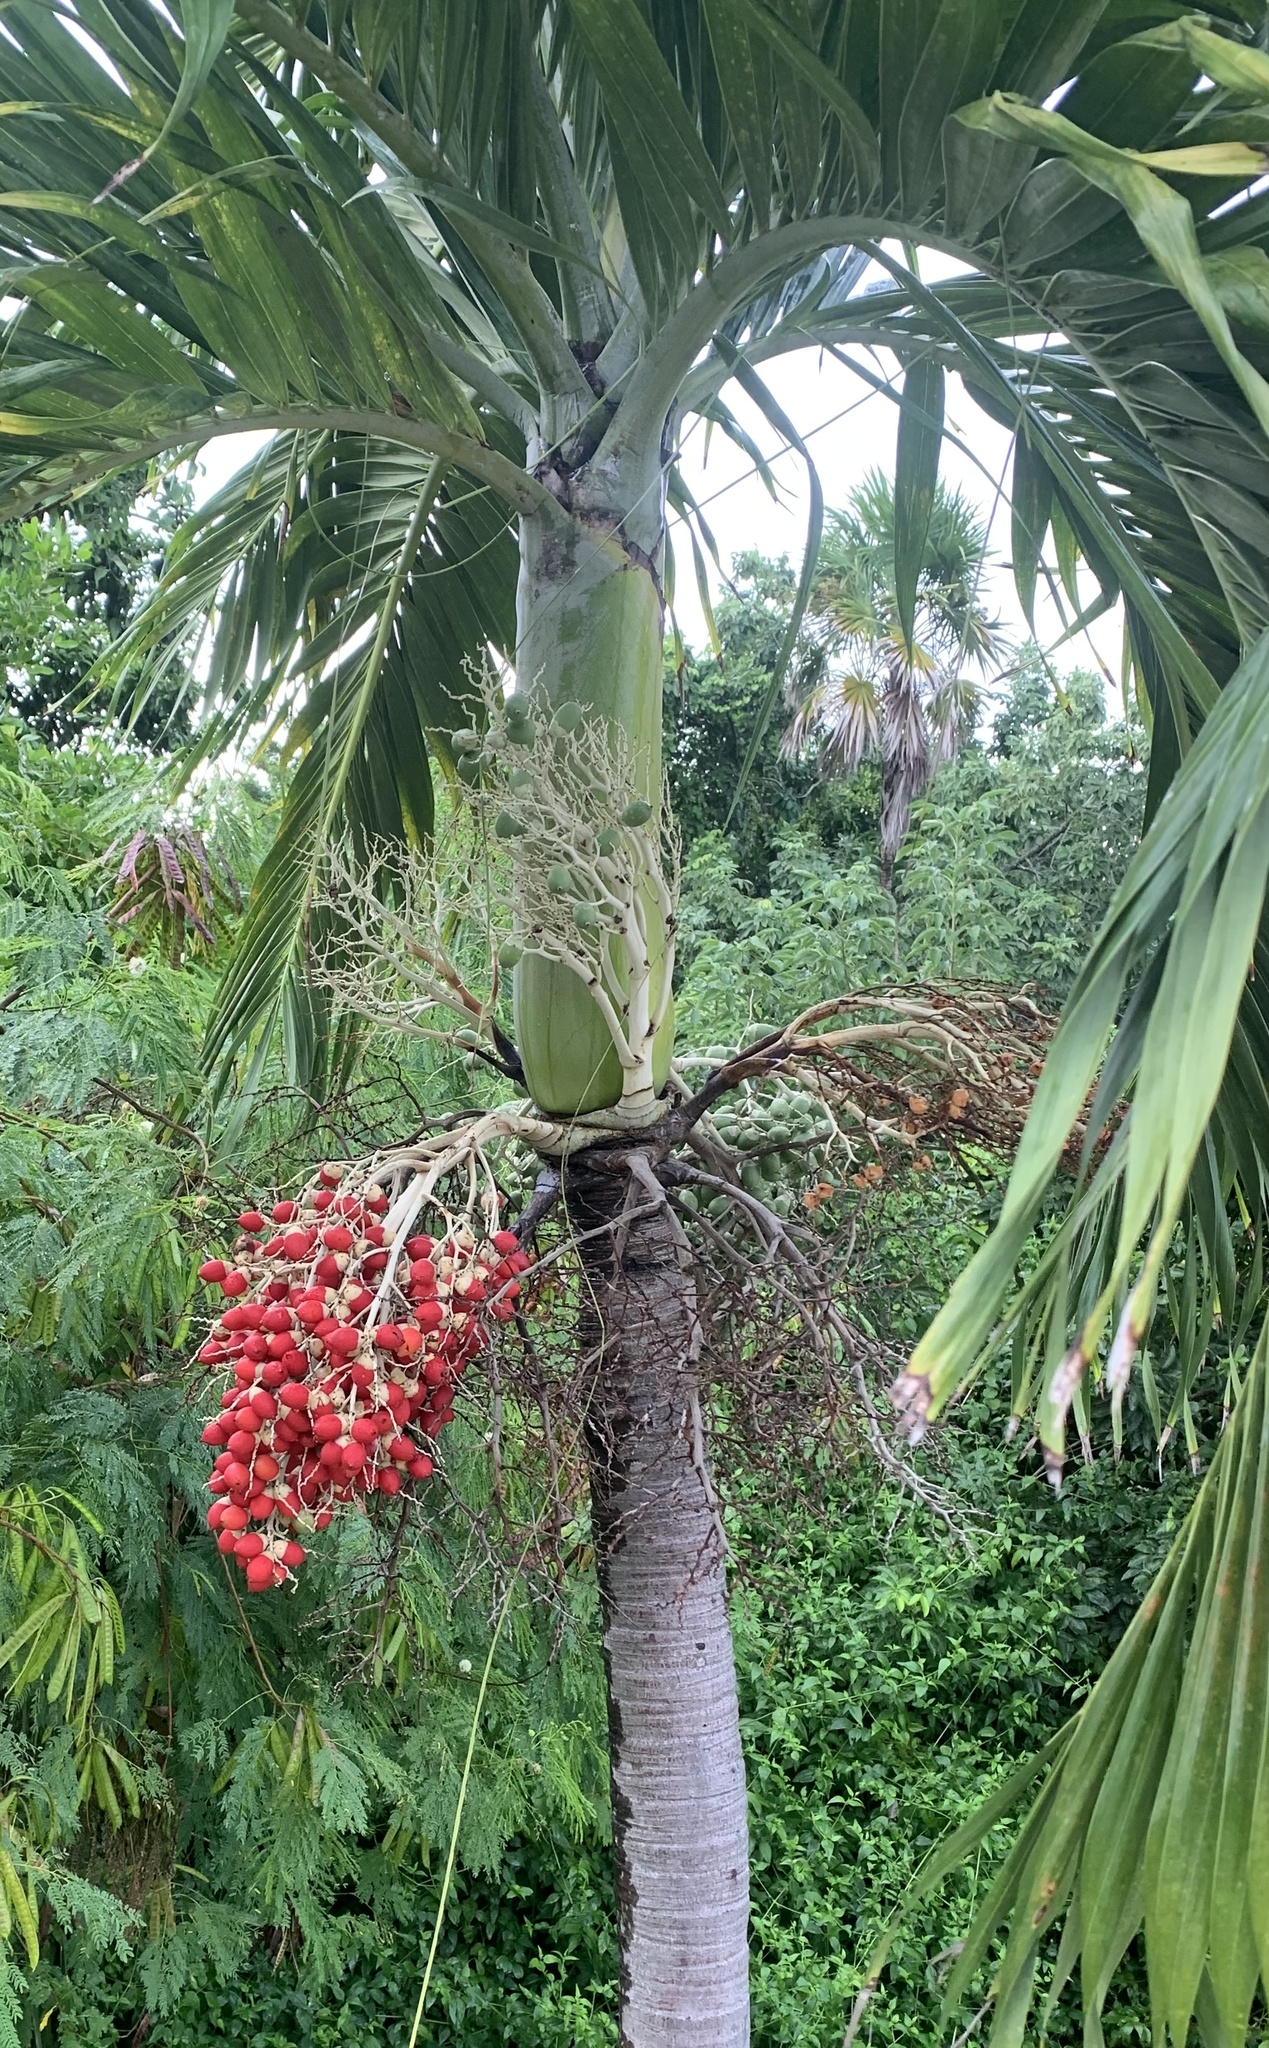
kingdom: Plantae
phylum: Tracheophyta
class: Liliopsida
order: Arecales
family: Arecaceae
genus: Adonidia
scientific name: Adonidia merrillii
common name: Manila palm
